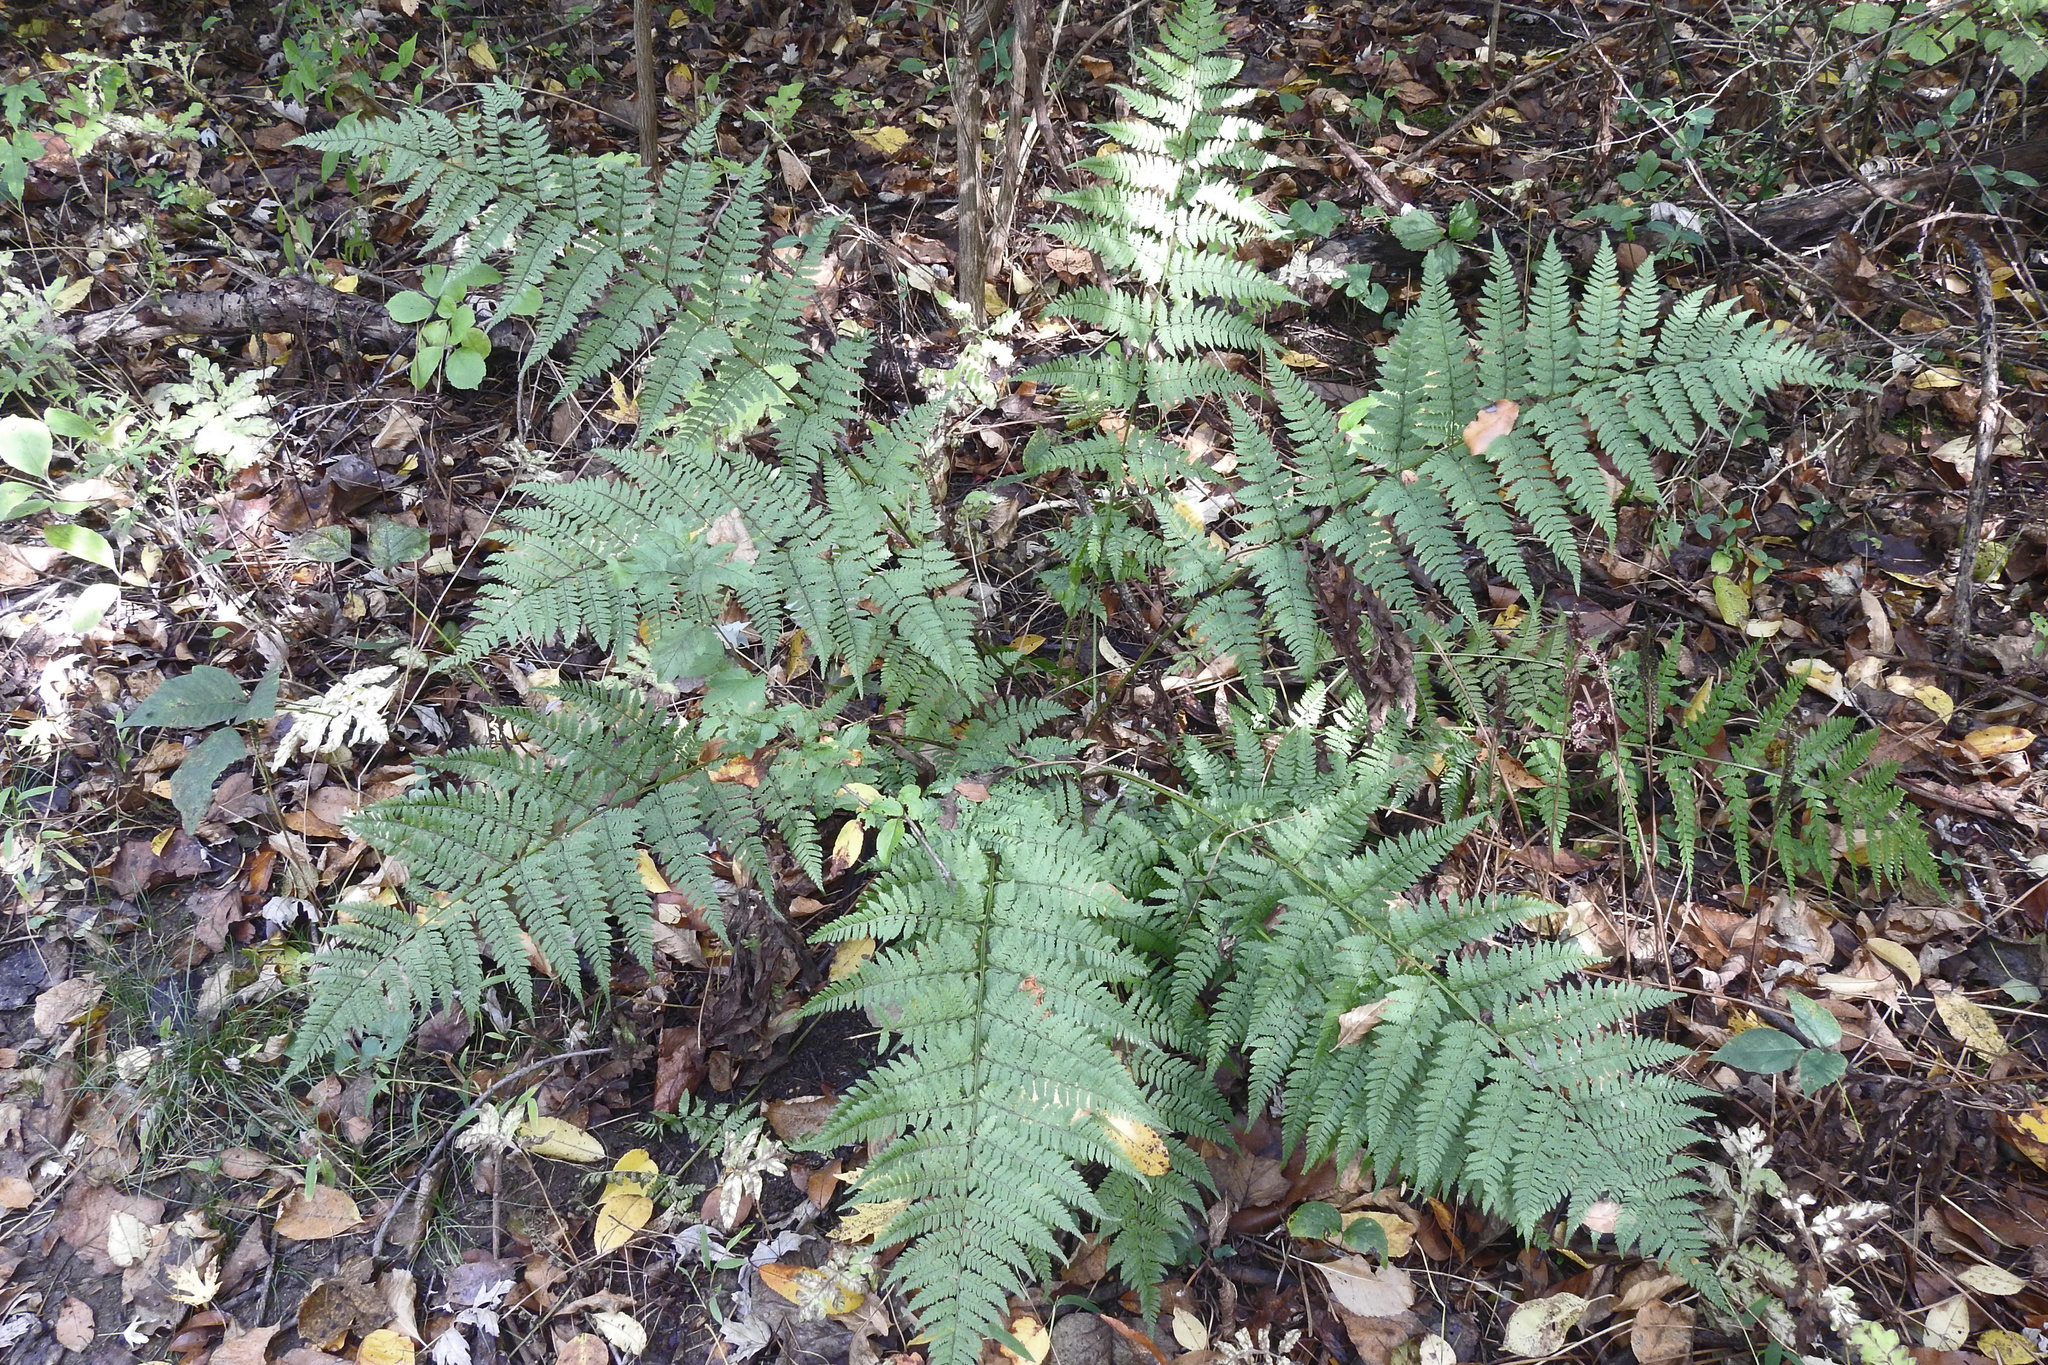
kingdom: Plantae
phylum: Tracheophyta
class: Polypodiopsida
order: Polypodiales
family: Dryopteridaceae
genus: Dryopteris
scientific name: Dryopteris carthusiana
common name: Narrow buckler-fern
